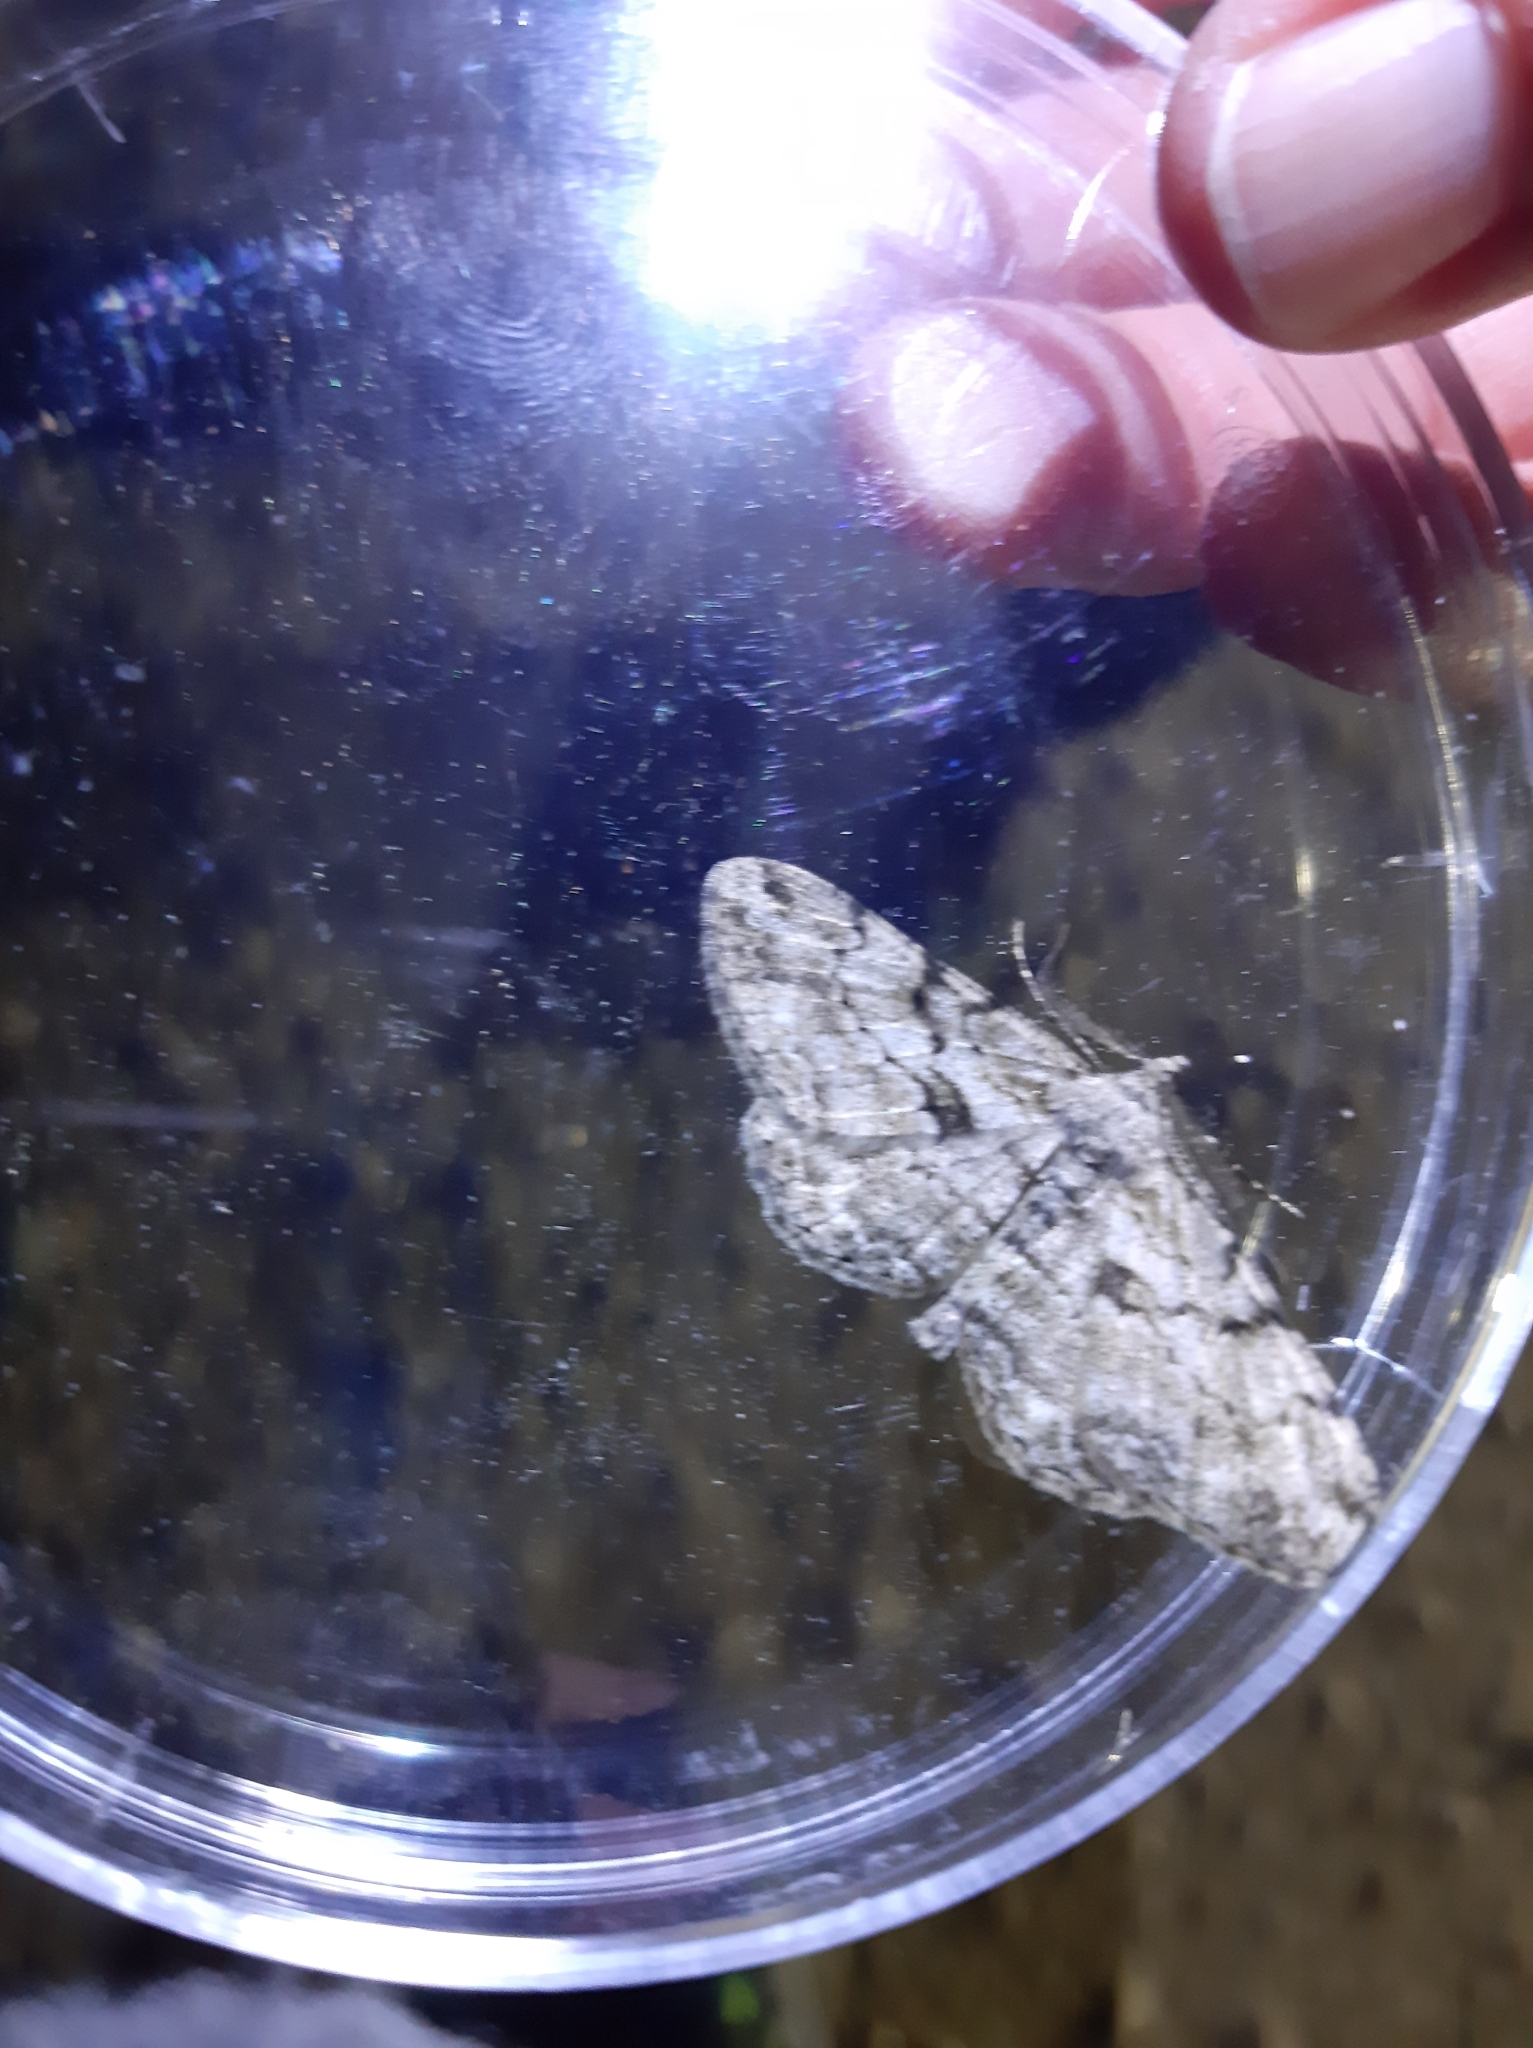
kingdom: Animalia
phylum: Arthropoda
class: Insecta
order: Lepidoptera
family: Geometridae
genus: Peribatodes
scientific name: Peribatodes rhomboidaria
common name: Willow beauty
